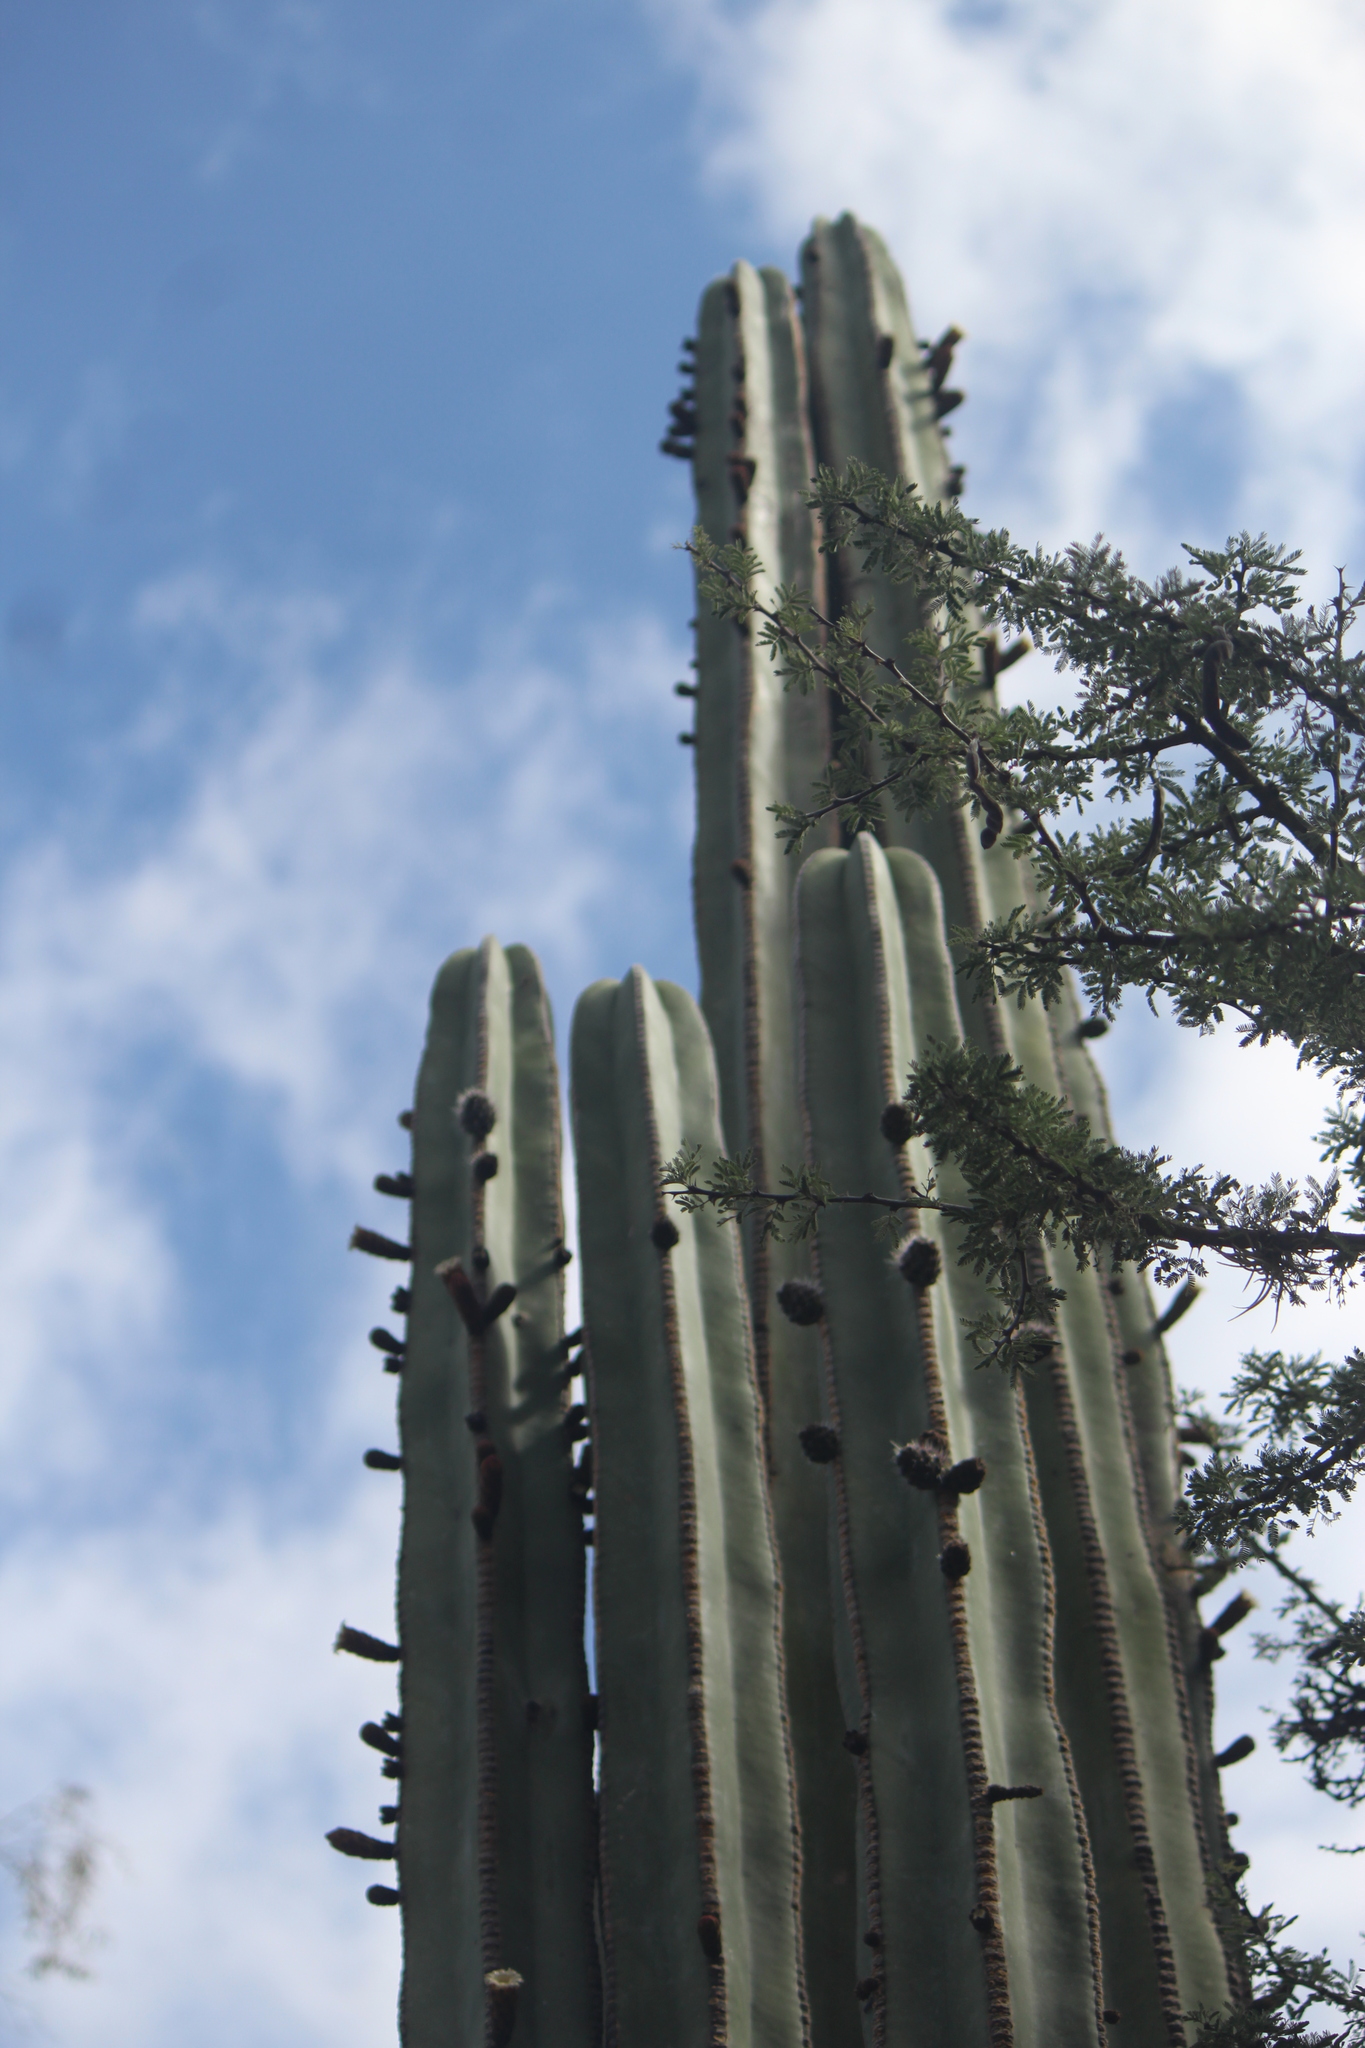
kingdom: Plantae
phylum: Tracheophyta
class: Magnoliopsida
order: Caryophyllales
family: Cactaceae
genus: Marginatocereus
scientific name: Marginatocereus marginatus
